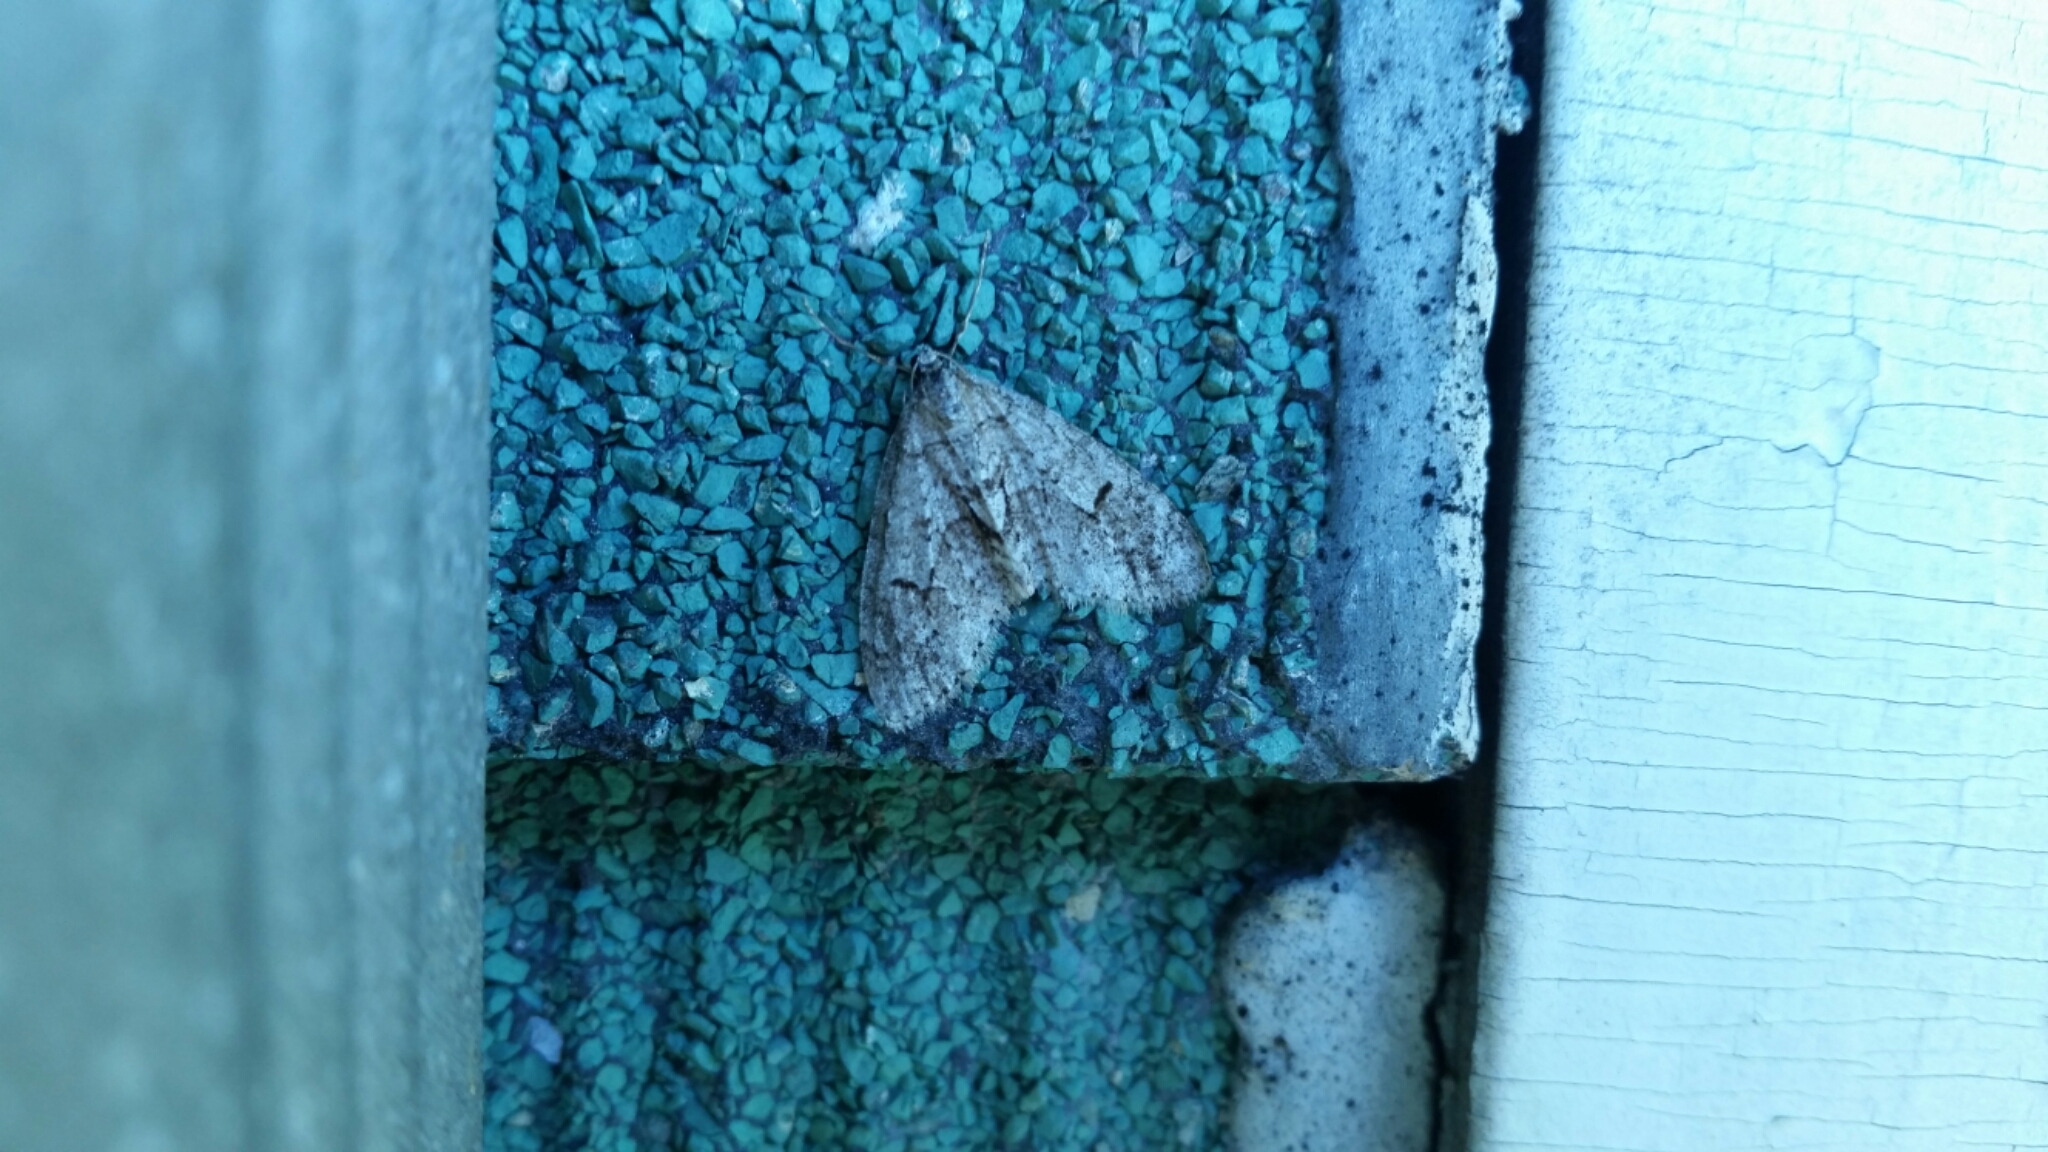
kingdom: Animalia
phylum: Arthropoda
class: Insecta
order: Lepidoptera
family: Geometridae
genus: Cladara
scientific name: Cladara limitaria
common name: Mottled gray carpet
